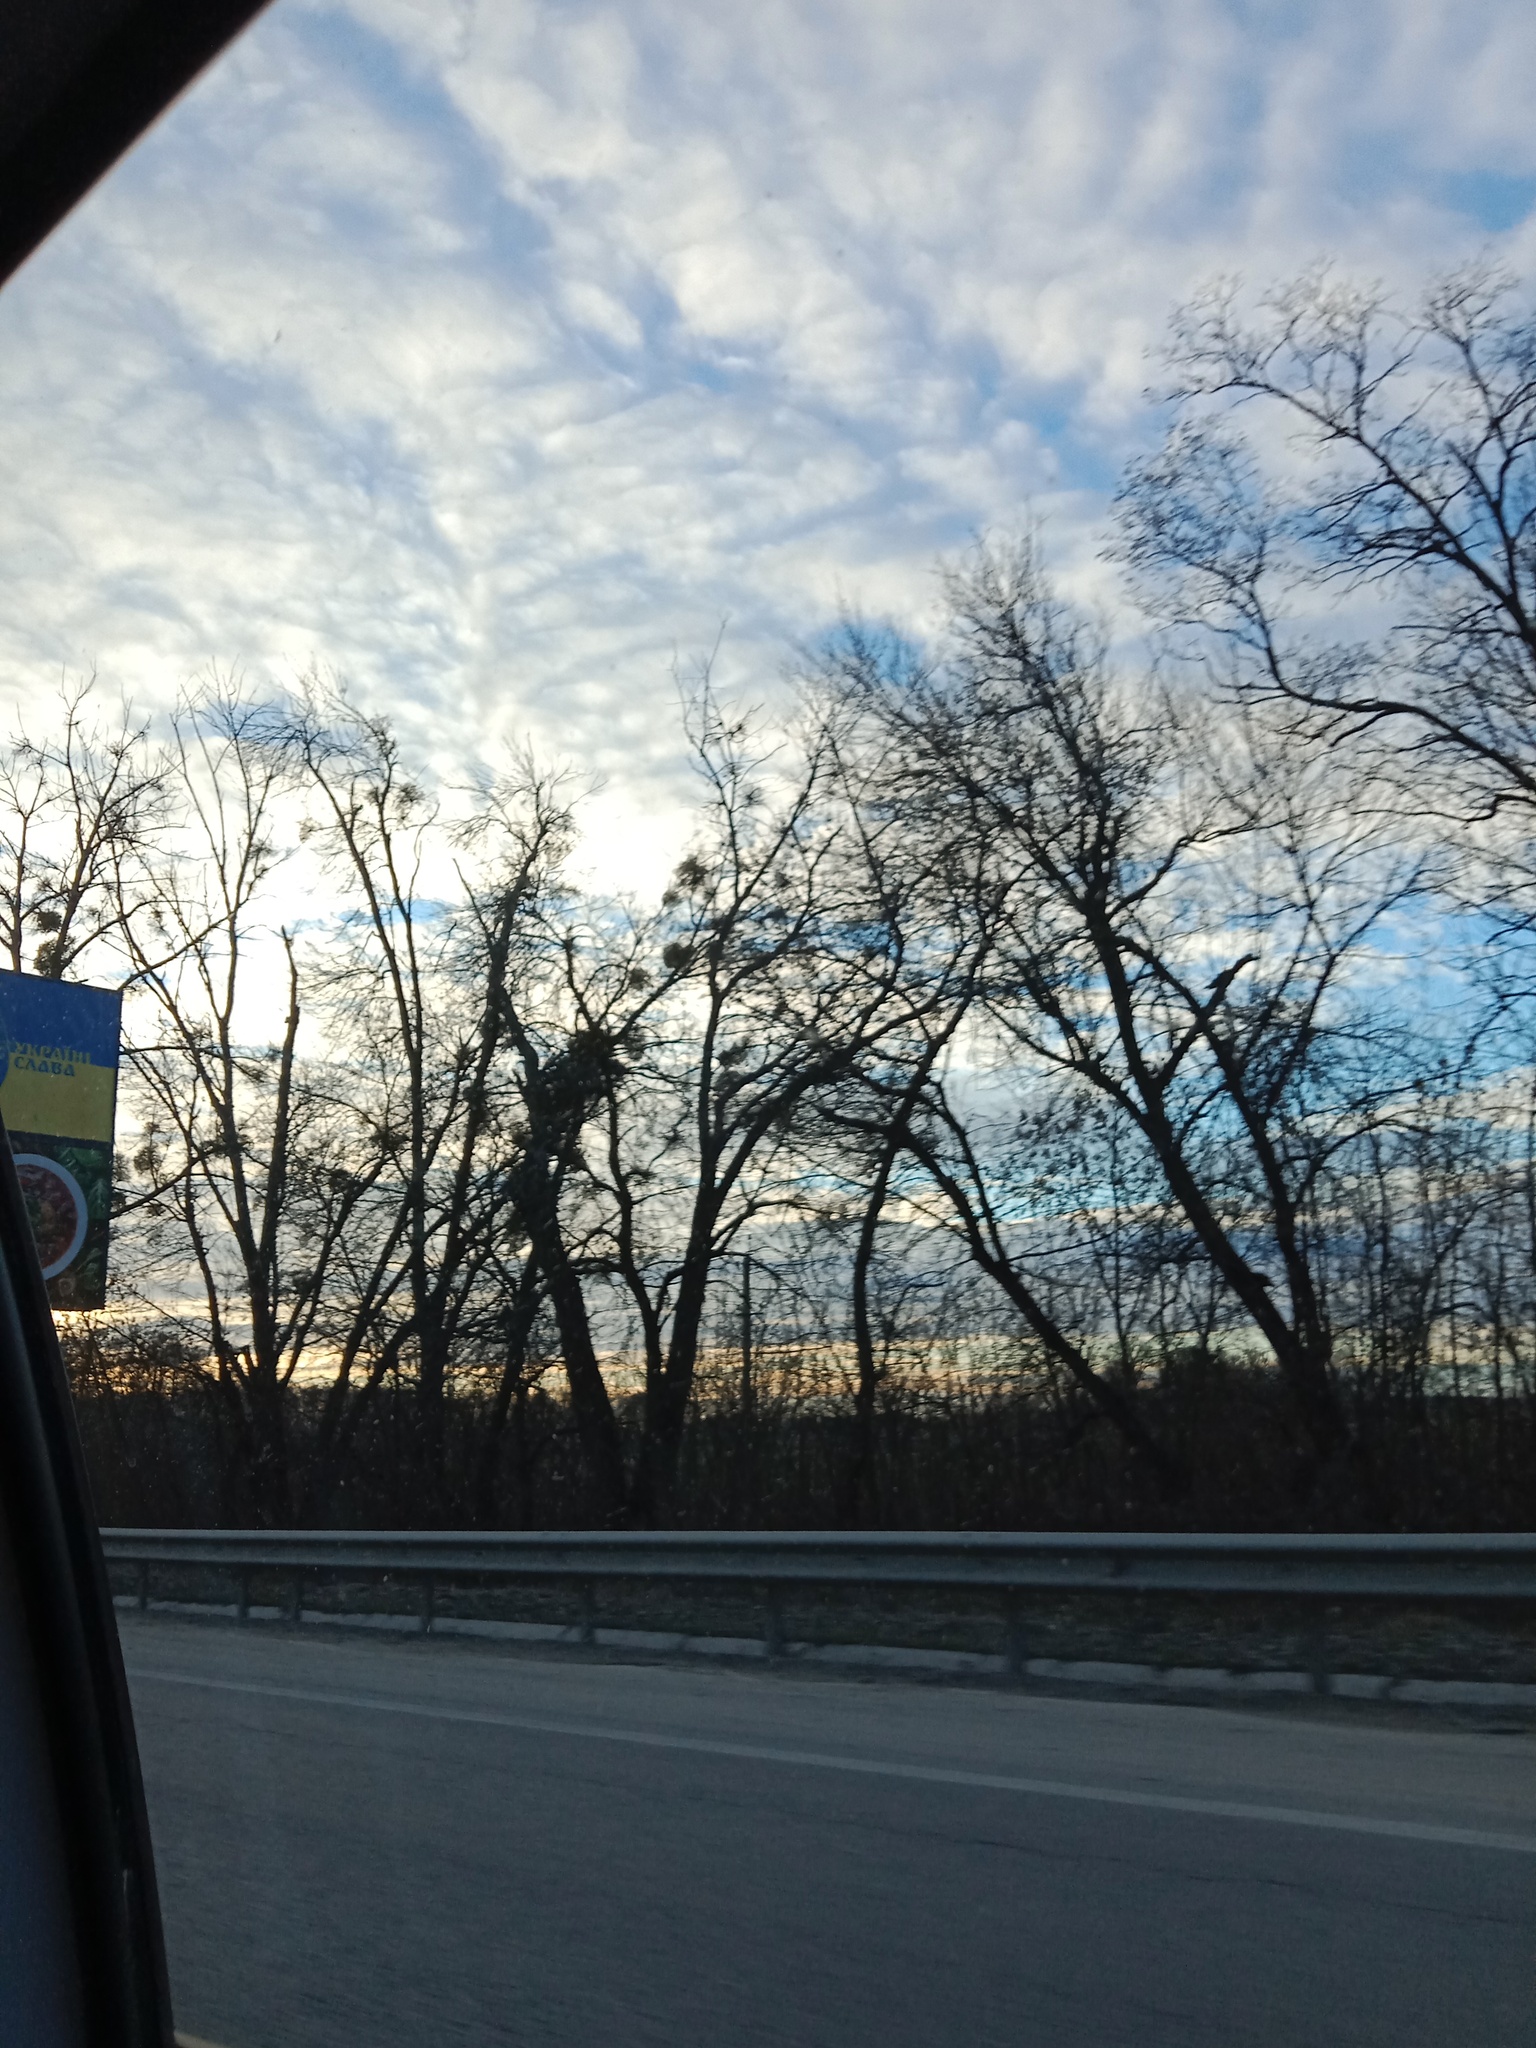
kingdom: Plantae
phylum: Tracheophyta
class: Magnoliopsida
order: Santalales
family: Viscaceae
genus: Viscum
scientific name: Viscum album
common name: Mistletoe
